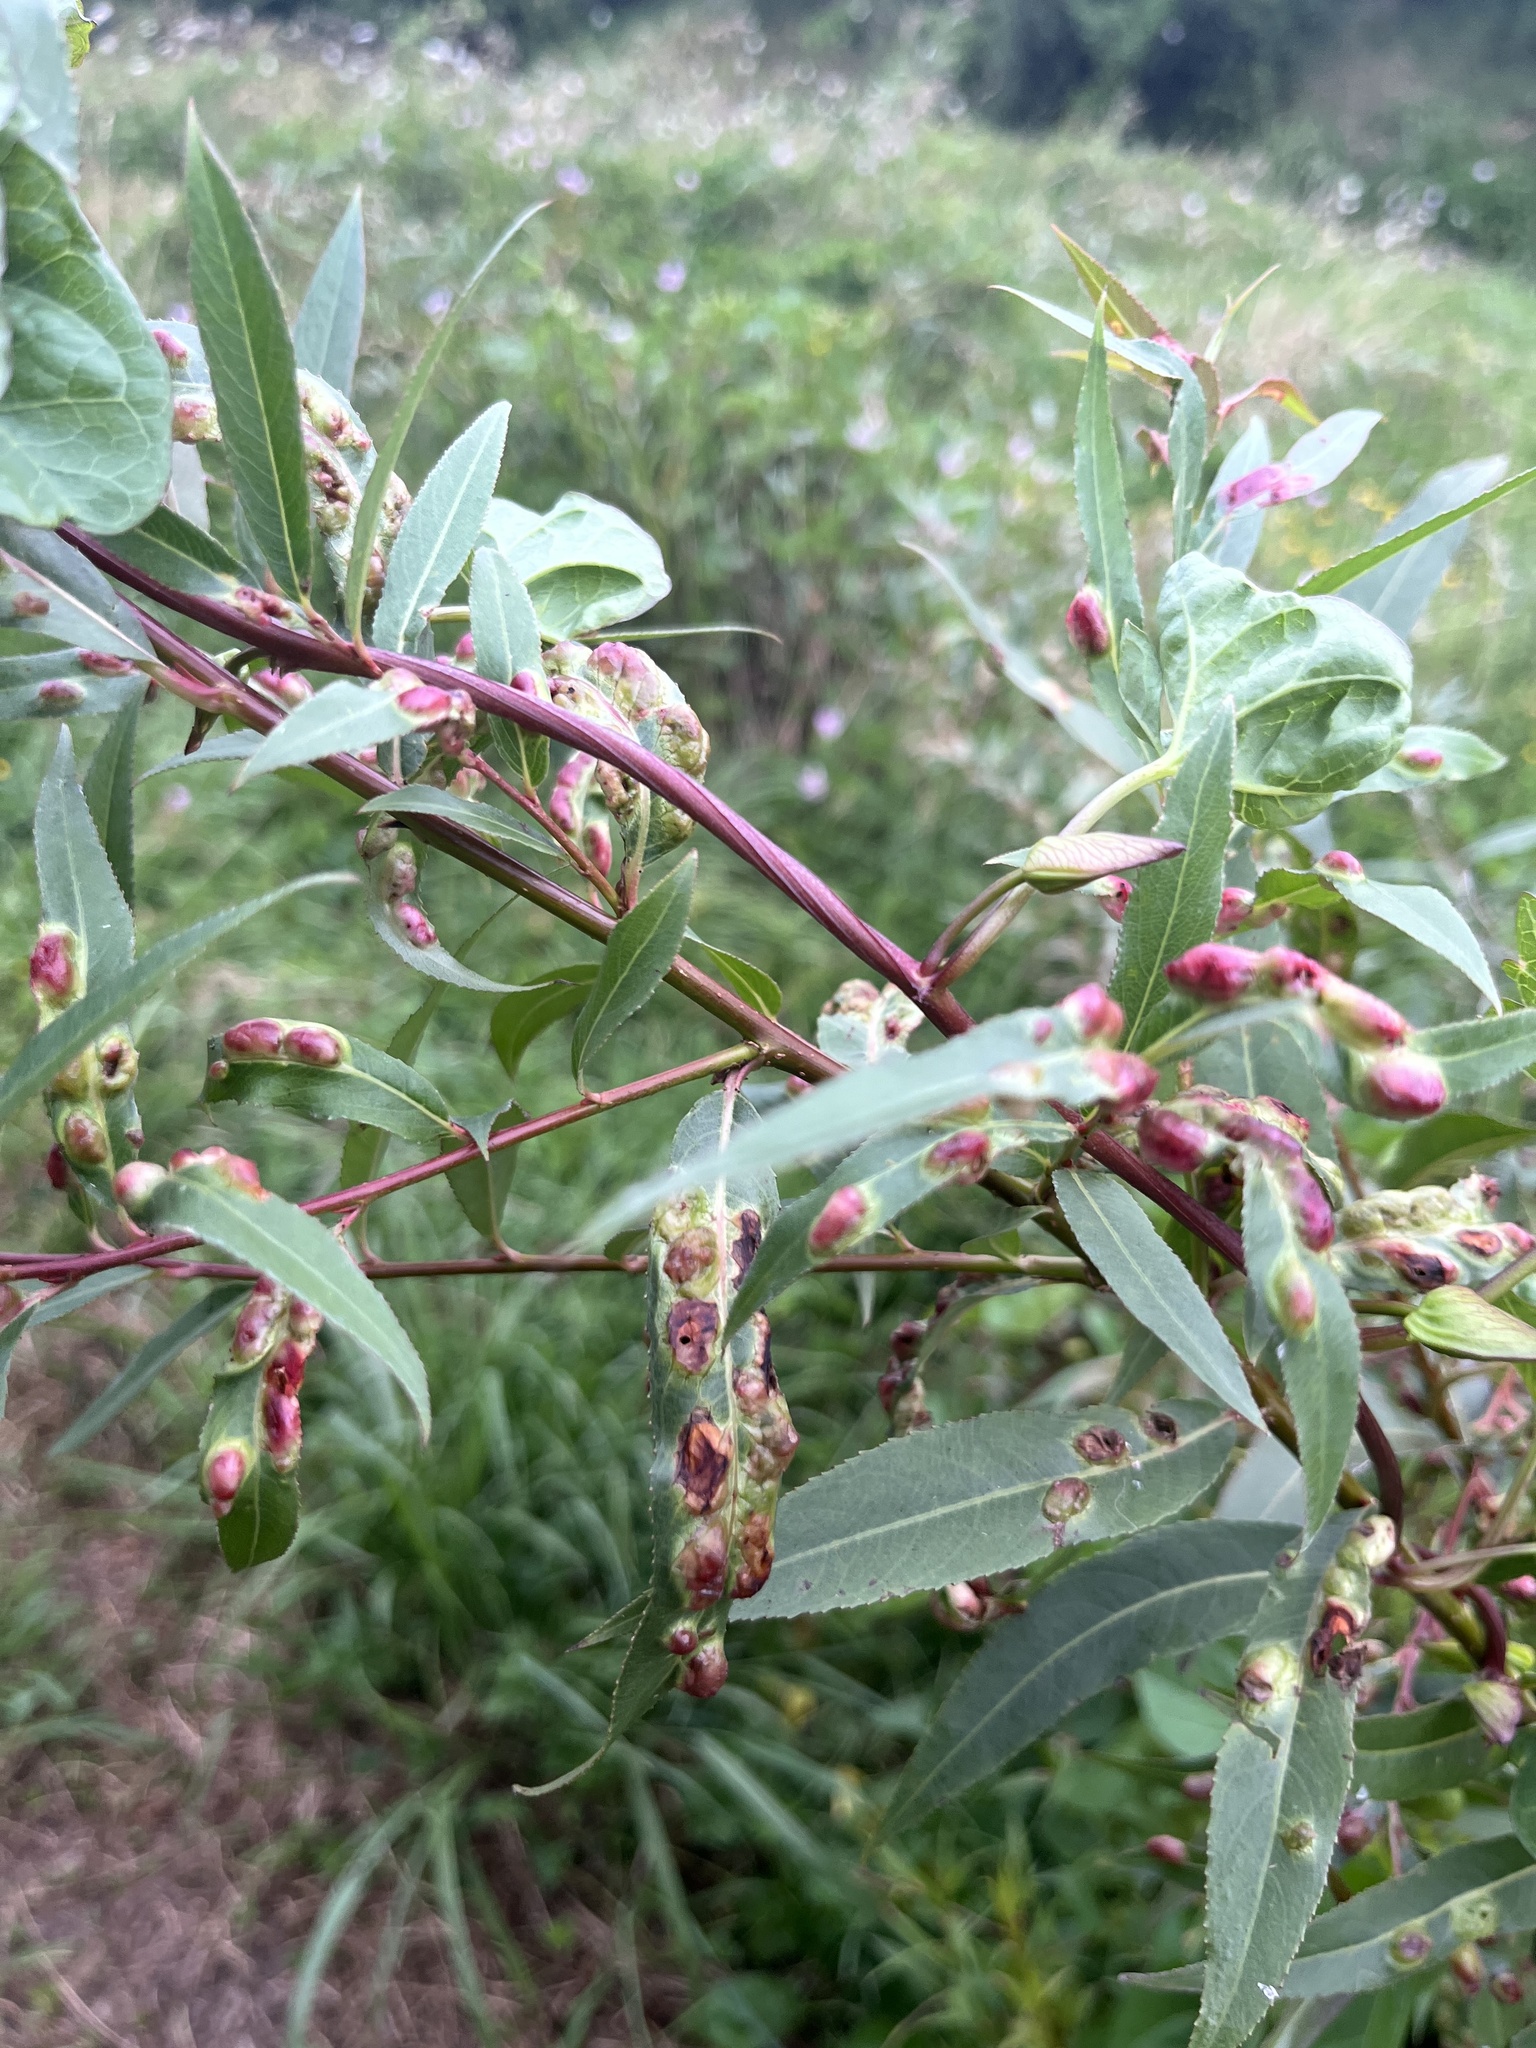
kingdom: Animalia
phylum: Arthropoda
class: Insecta
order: Hymenoptera
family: Tenthredinidae
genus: Pontania
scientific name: Pontania proxima
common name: Common sawfly
